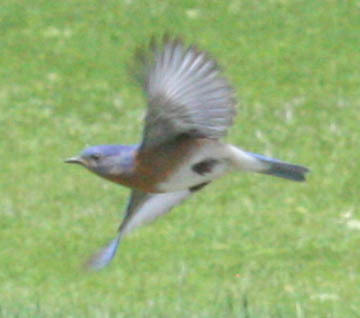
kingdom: Animalia
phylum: Chordata
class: Aves
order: Passeriformes
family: Turdidae
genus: Sialia
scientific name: Sialia sialis
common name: Eastern bluebird
